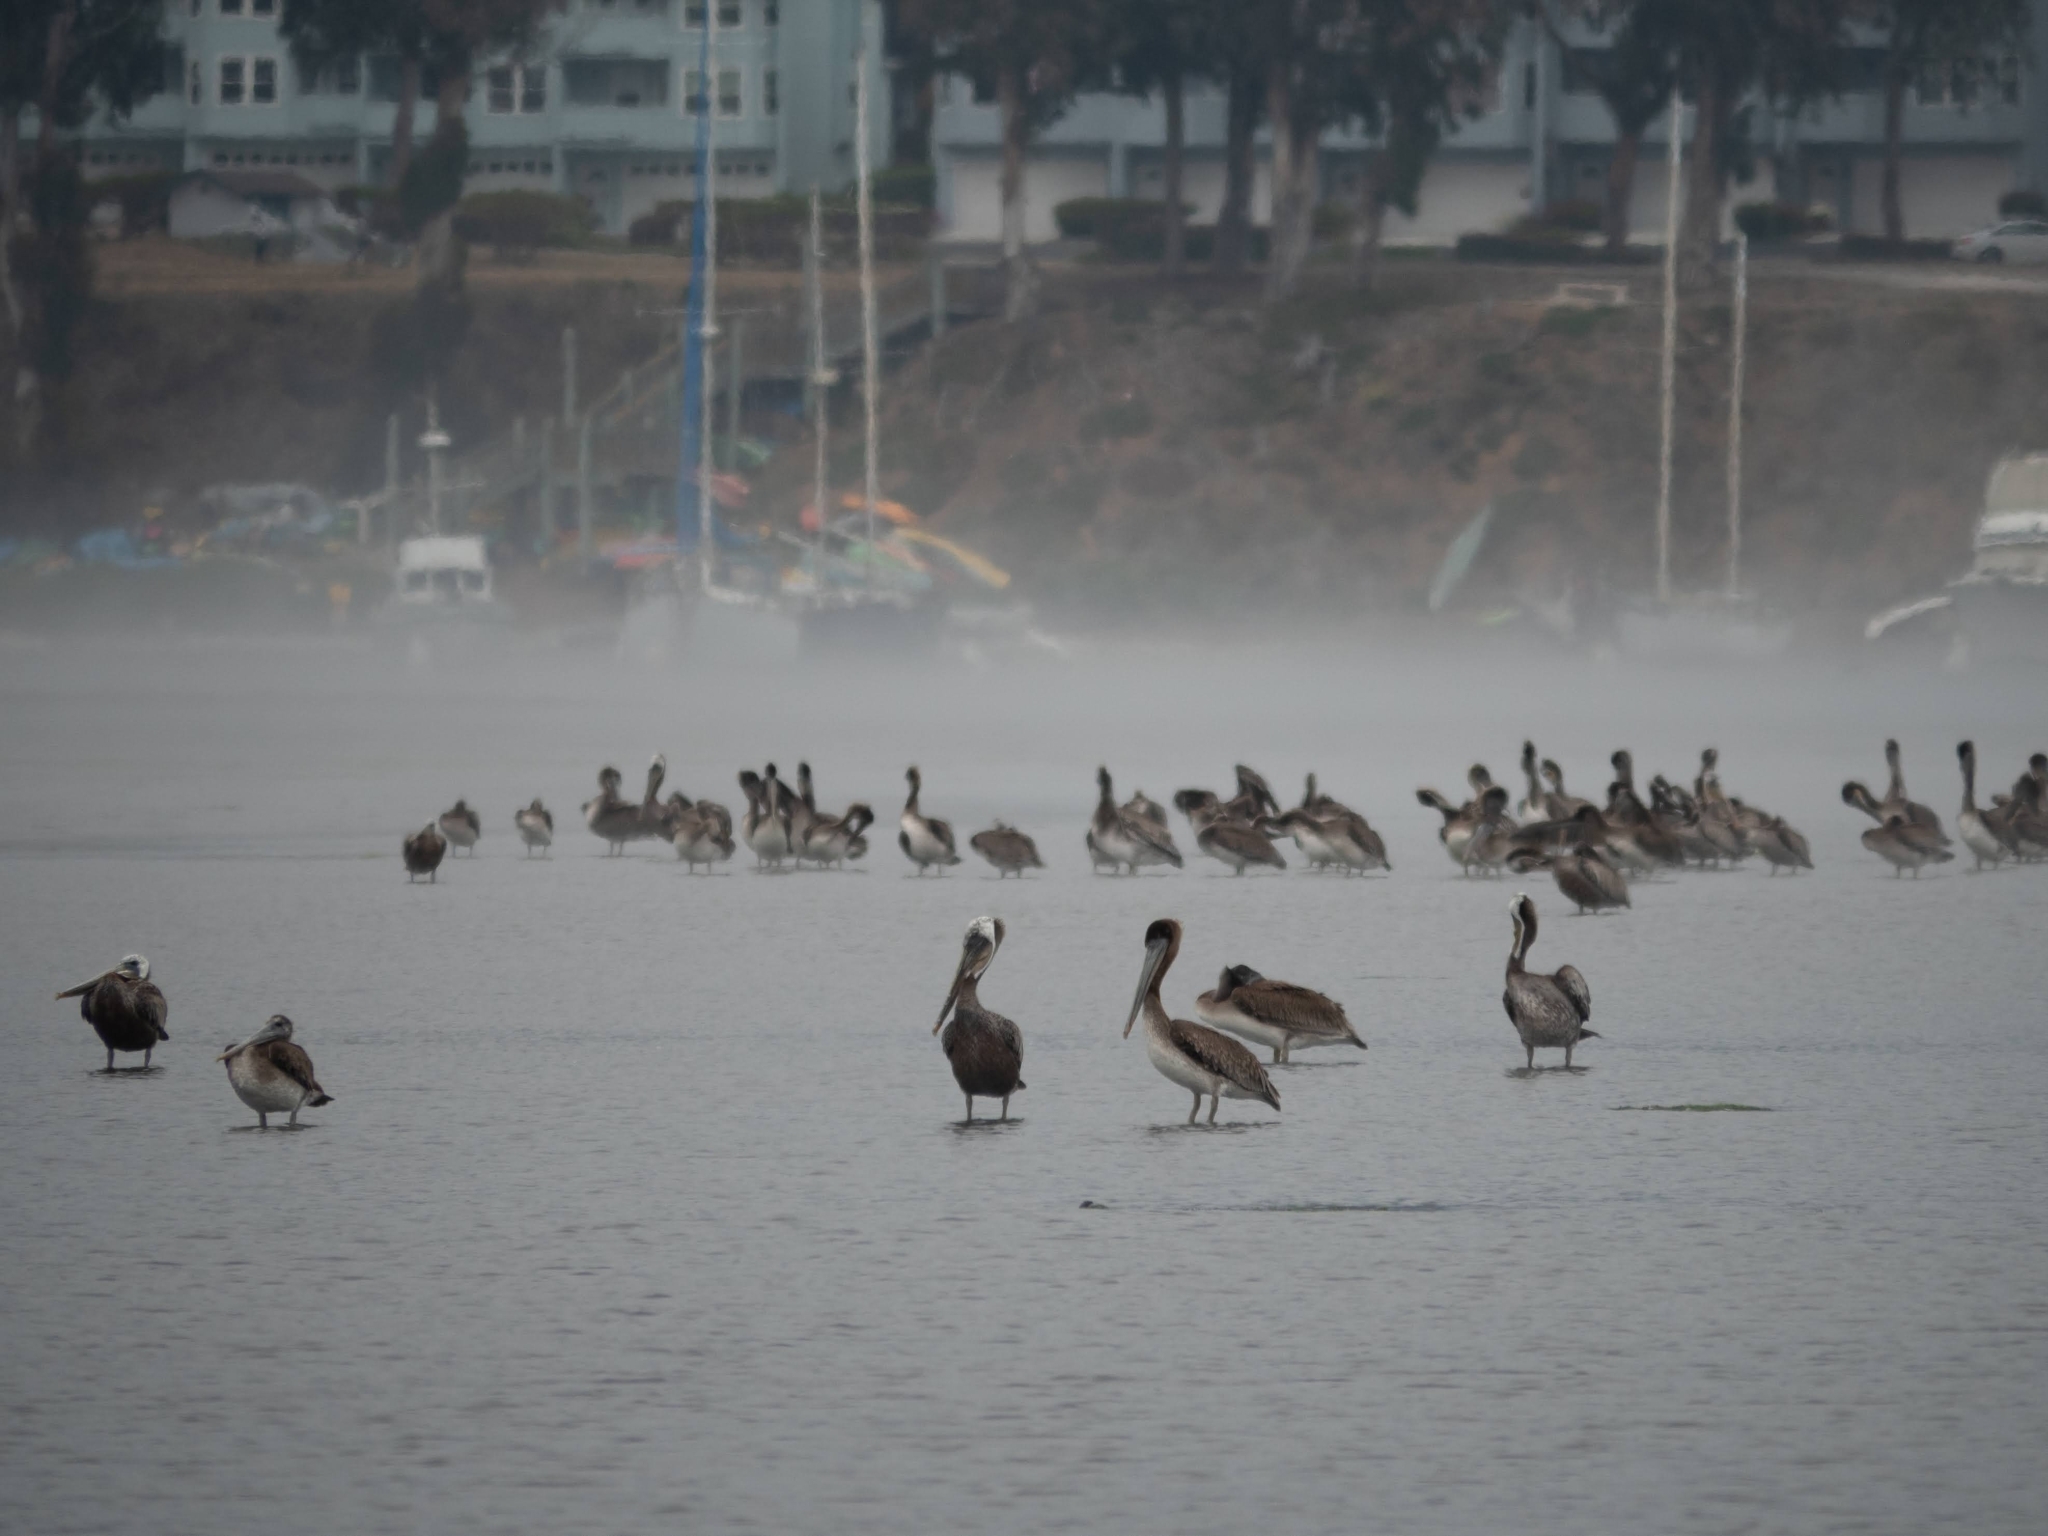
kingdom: Animalia
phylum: Chordata
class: Aves
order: Pelecaniformes
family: Pelecanidae
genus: Pelecanus
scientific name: Pelecanus occidentalis
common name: Brown pelican
